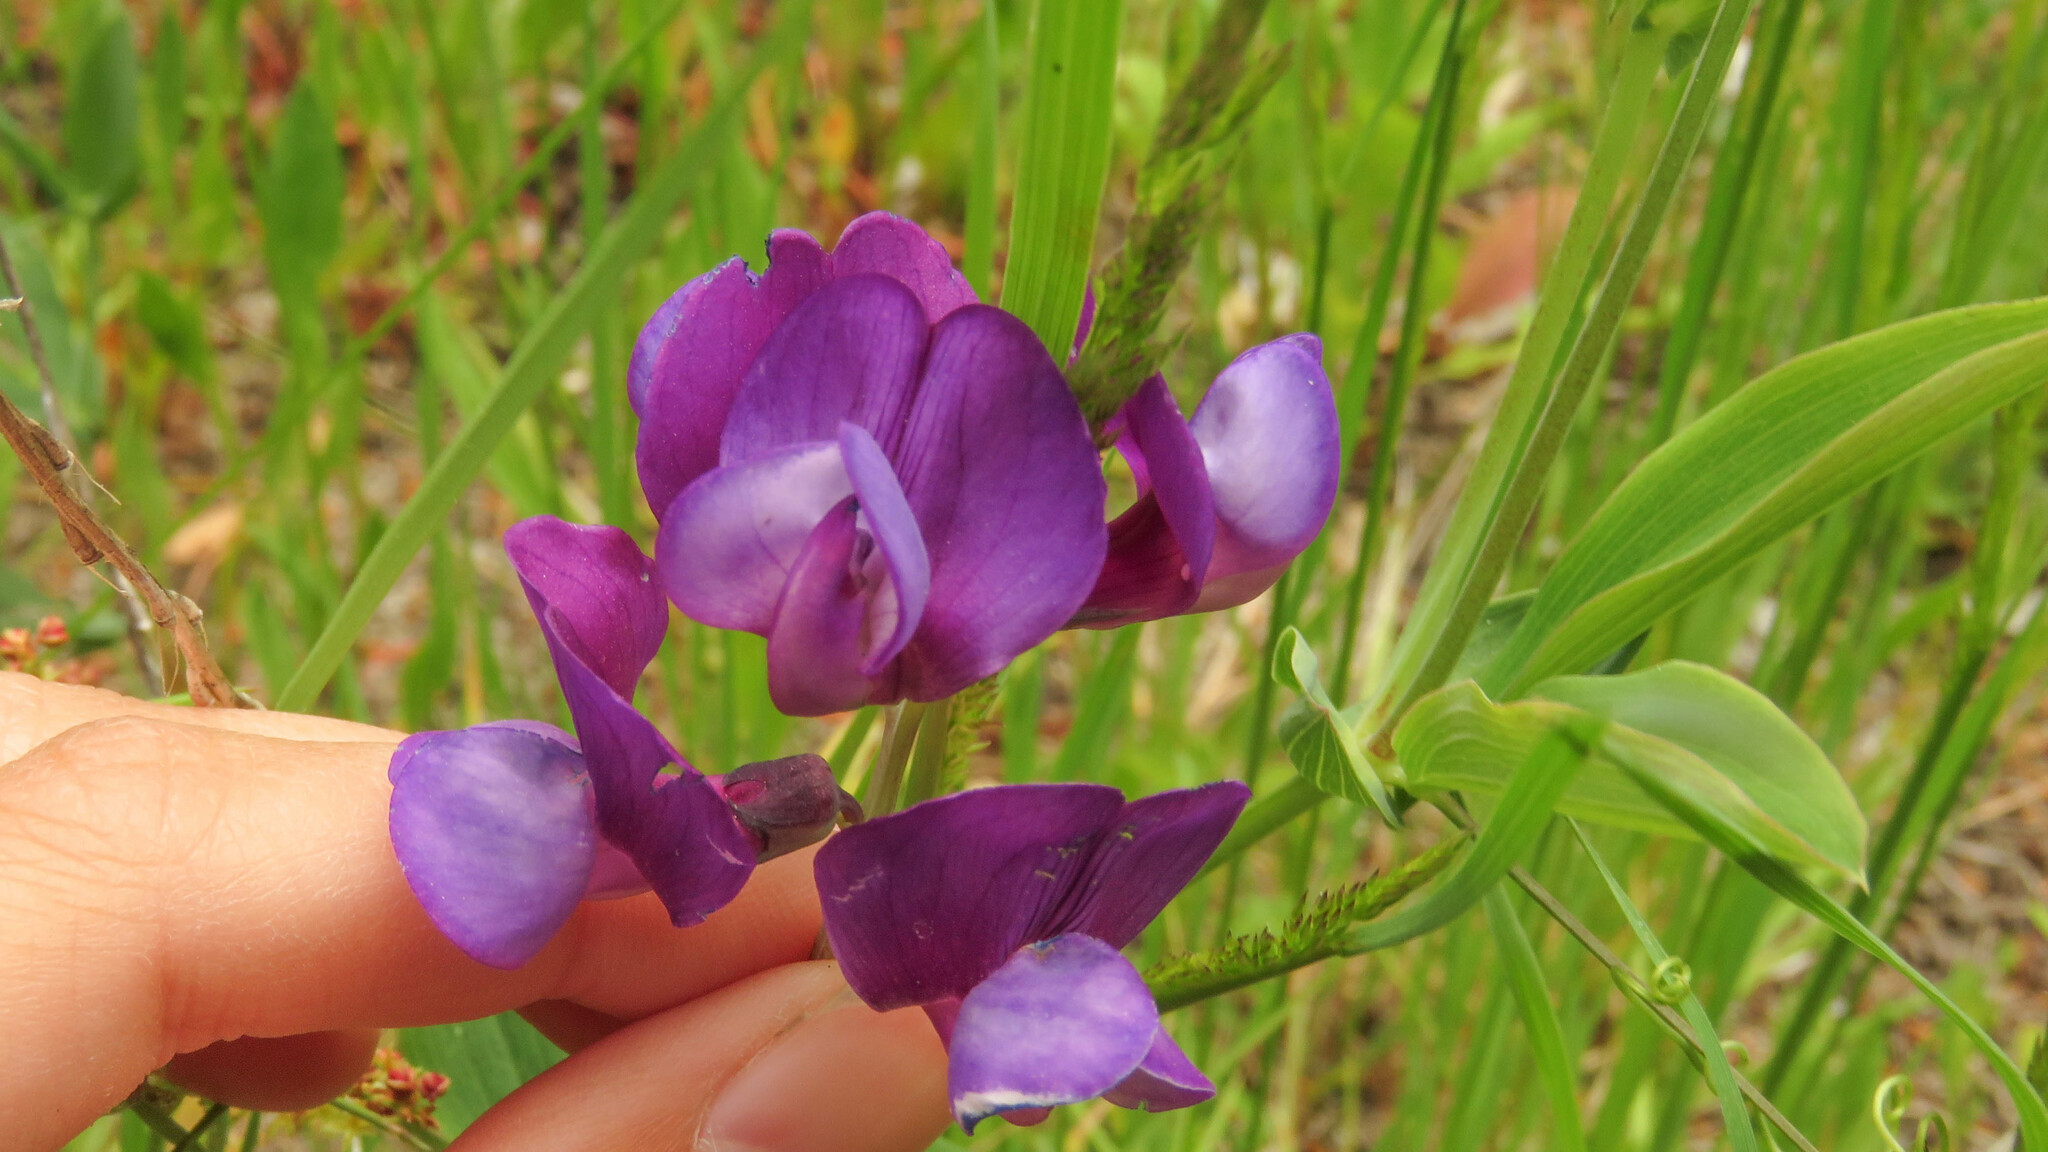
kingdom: Plantae
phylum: Tracheophyta
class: Magnoliopsida
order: Fabales
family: Fabaceae
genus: Lathyrus
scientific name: Lathyrus magellanicus
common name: Lord anson's pea
